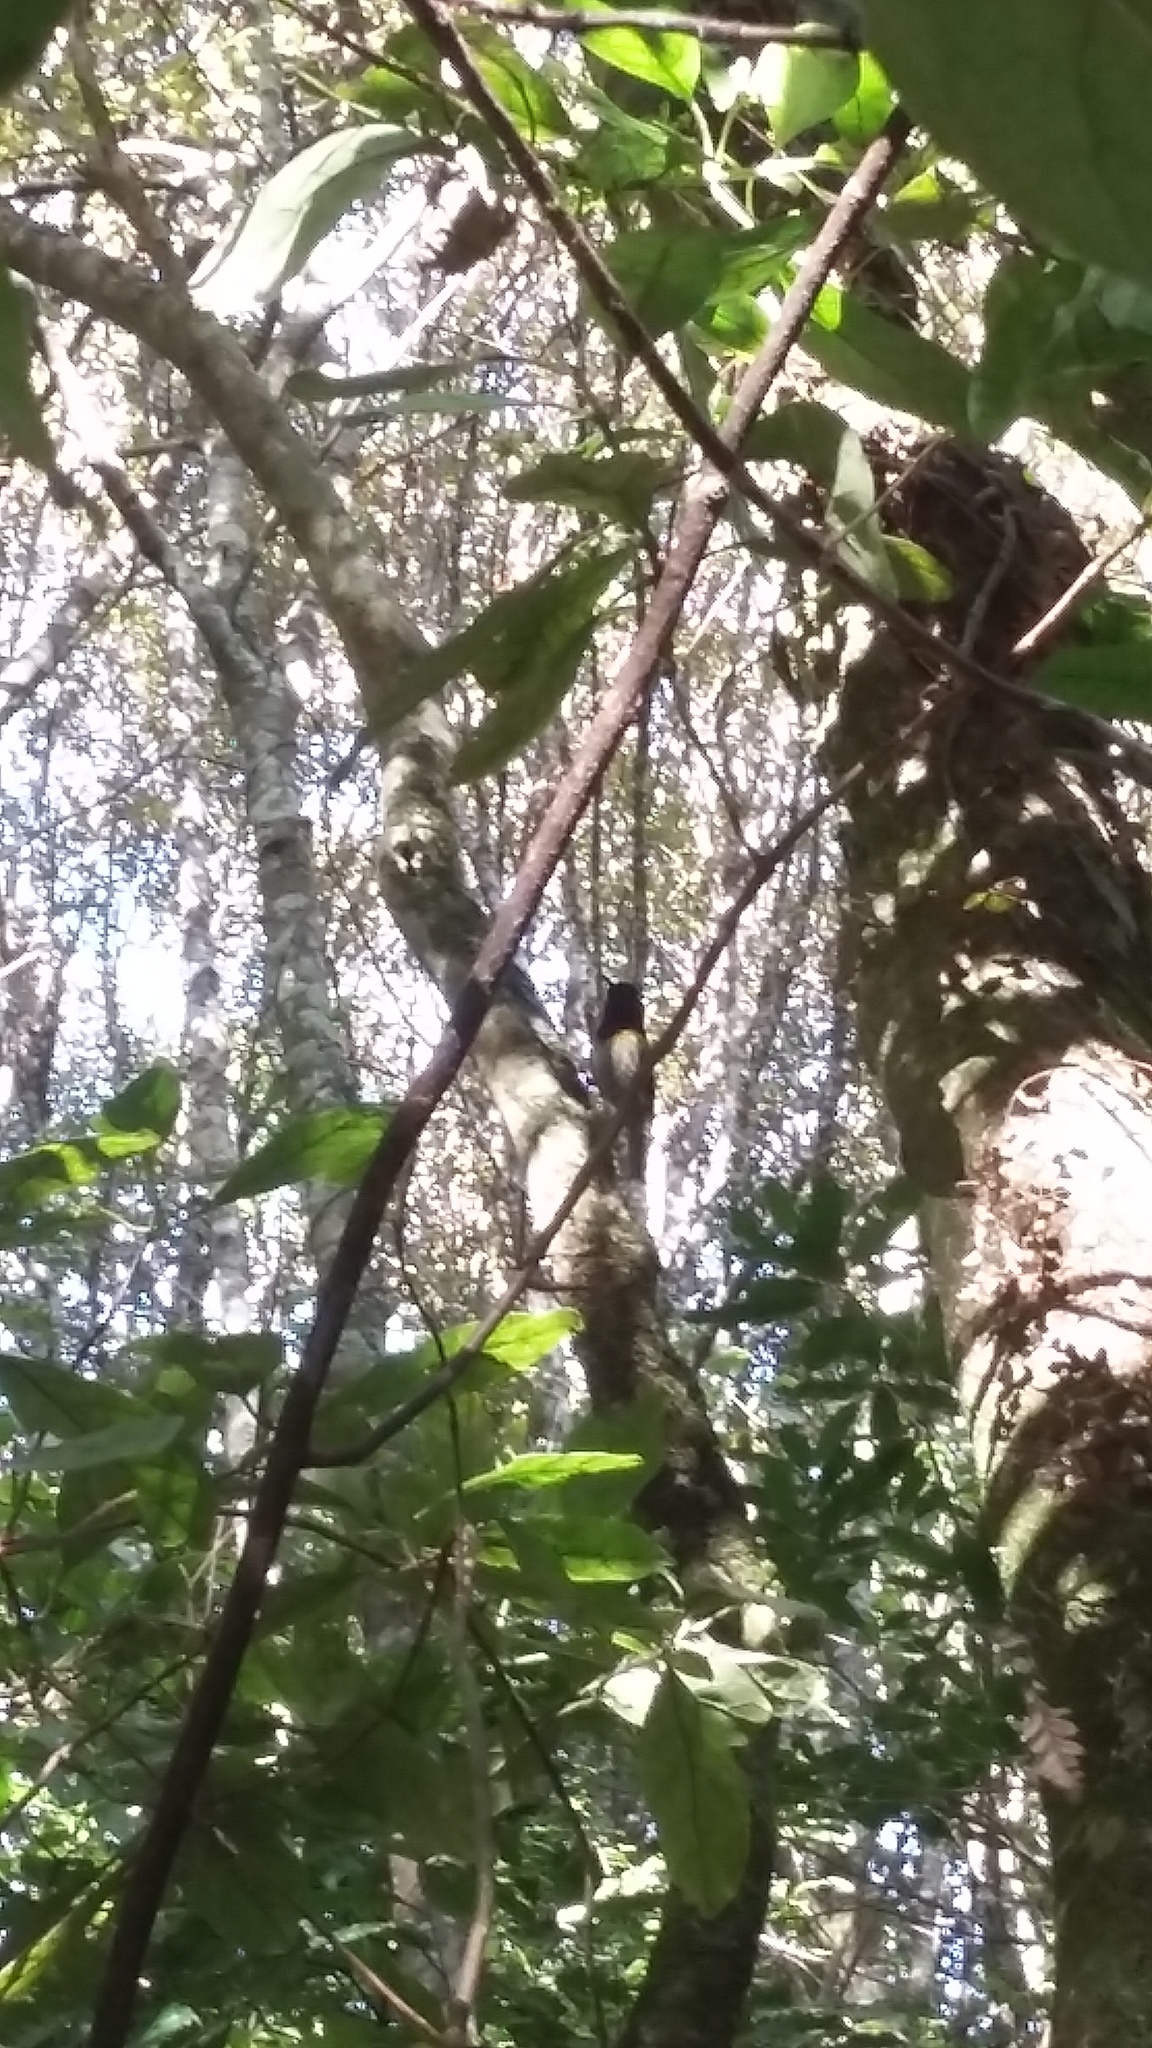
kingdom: Animalia
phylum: Chordata
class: Aves
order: Passeriformes
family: Notiomystidae
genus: Notiomystis
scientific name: Notiomystis cincta
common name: Stitchbird
